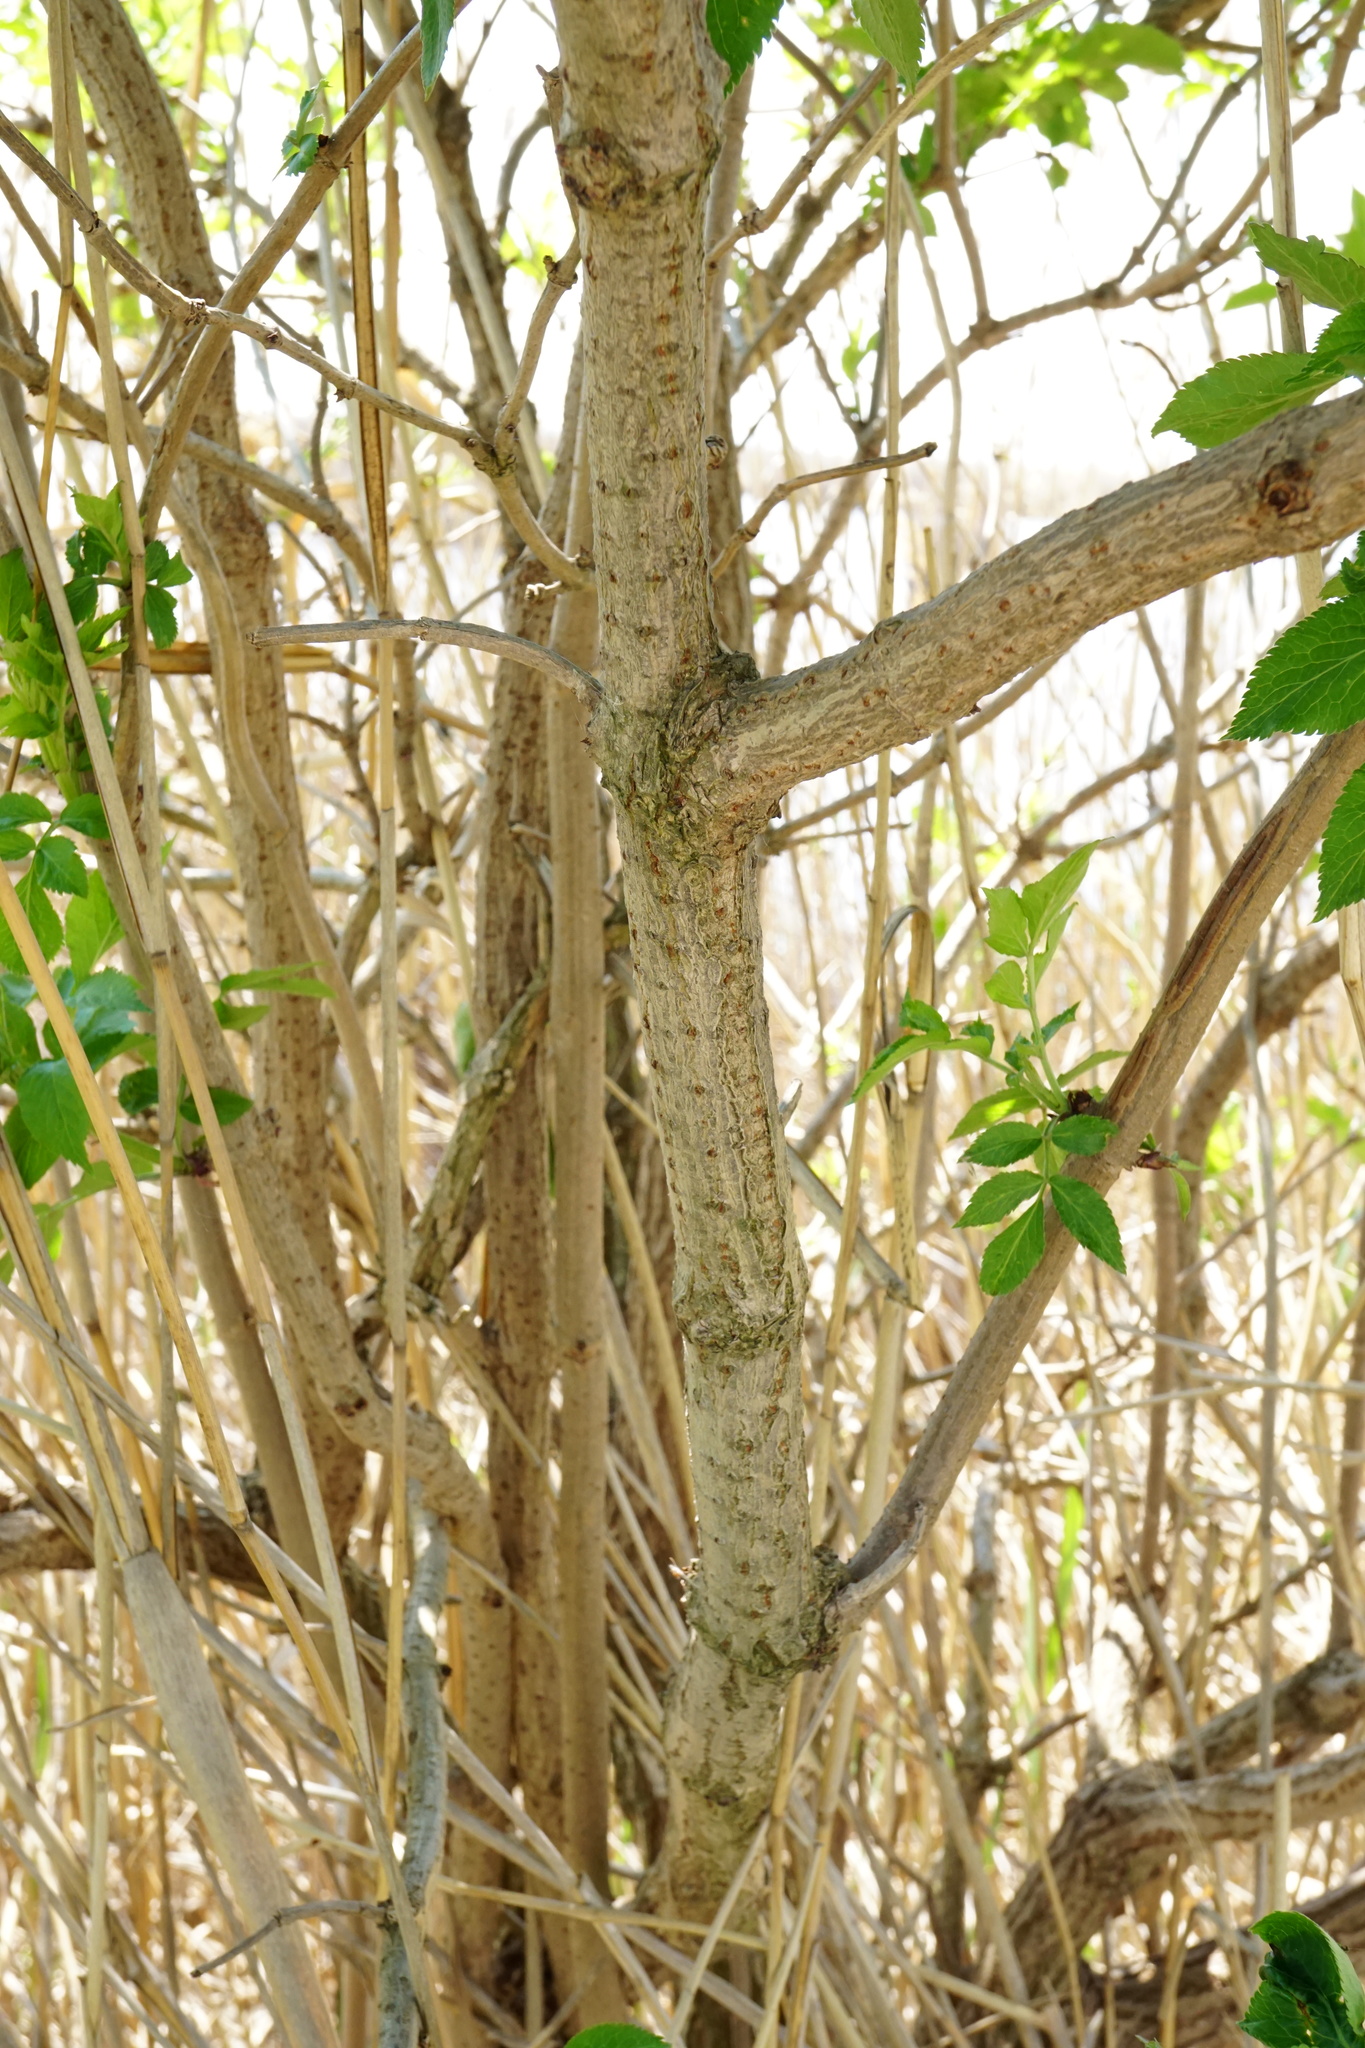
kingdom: Plantae
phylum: Tracheophyta
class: Magnoliopsida
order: Dipsacales
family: Viburnaceae
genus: Sambucus
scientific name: Sambucus nigra
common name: Elder
